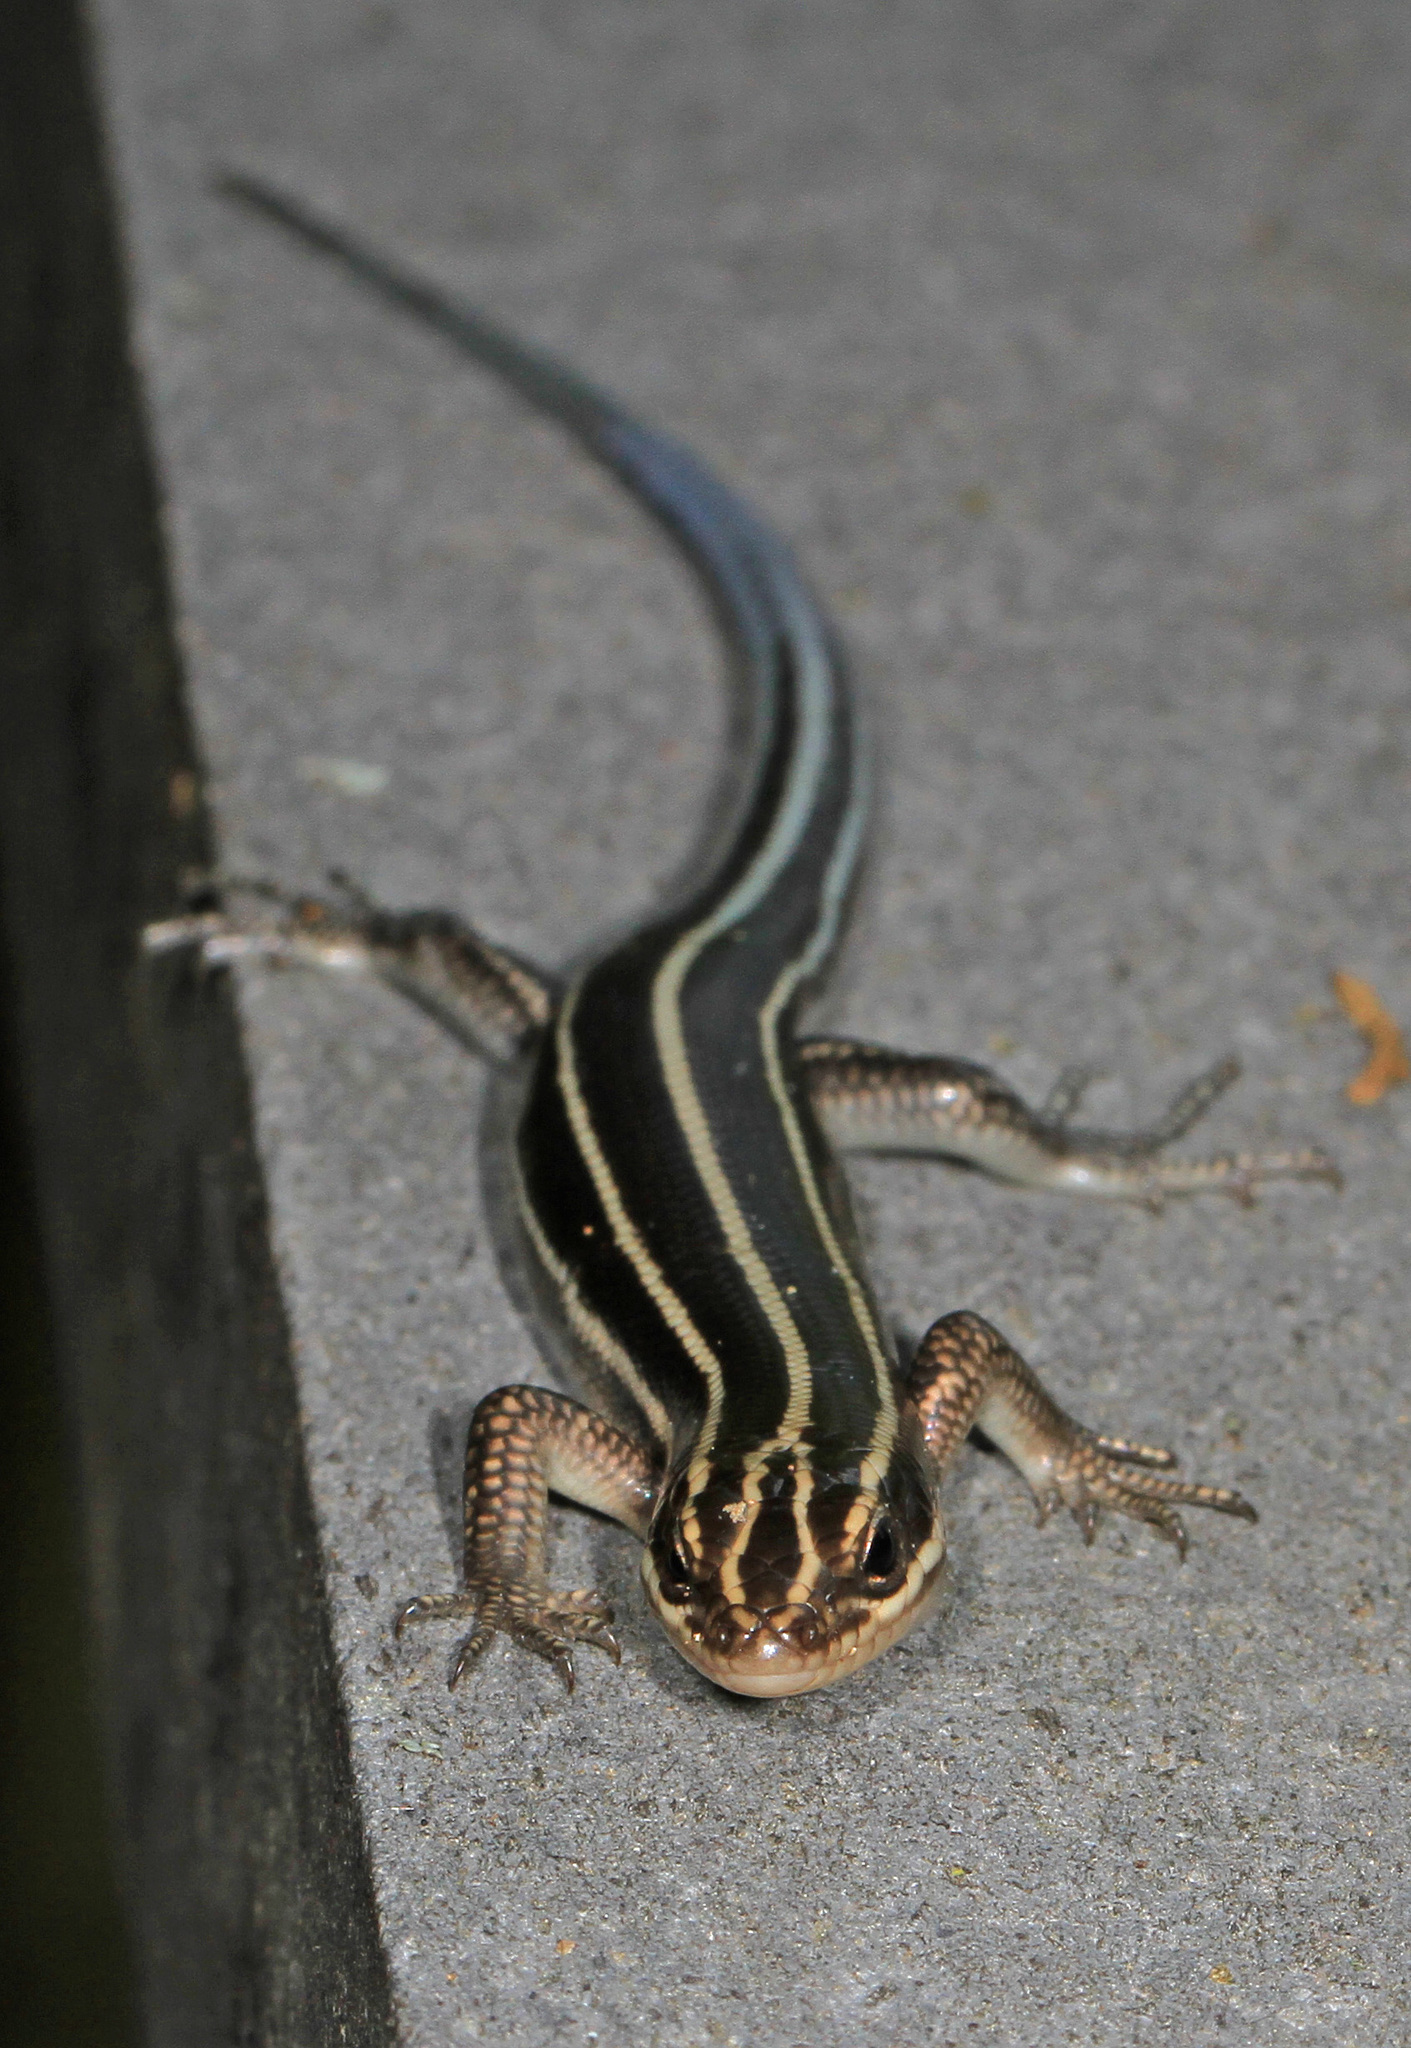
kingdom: Animalia
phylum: Chordata
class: Squamata
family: Scincidae
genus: Plestiodon
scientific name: Plestiodon fasciatus
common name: Five-lined skink
